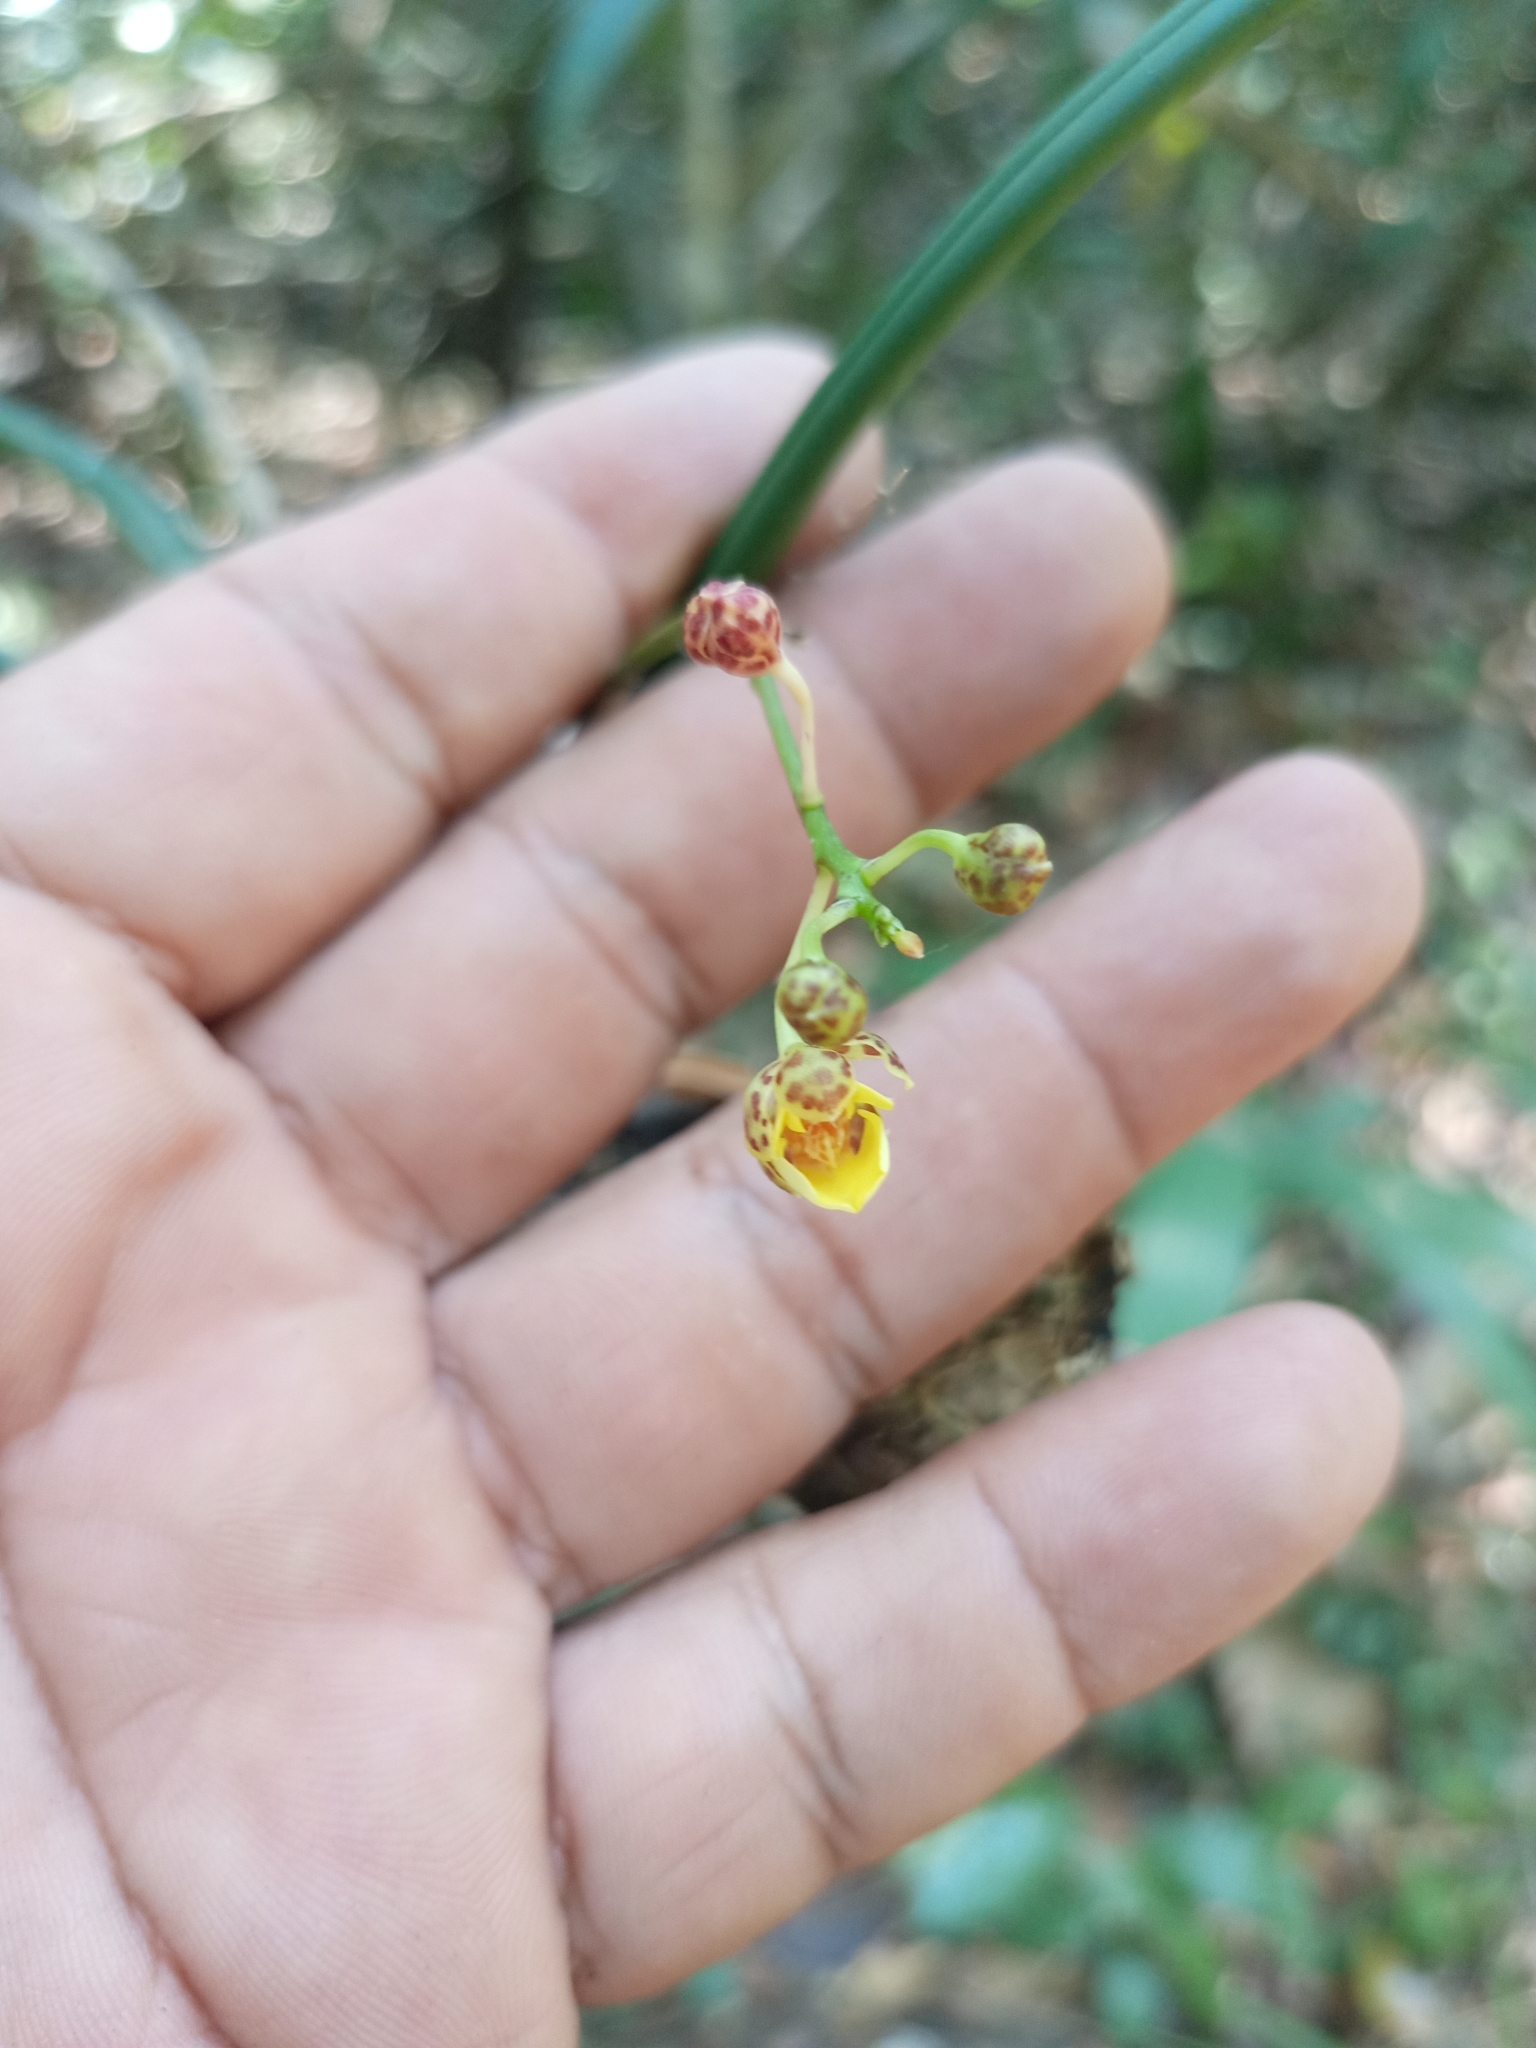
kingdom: Plantae
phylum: Tracheophyta
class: Liliopsida
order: Asparagales
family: Orchidaceae
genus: Trichocentrum
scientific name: Trichocentrum ascendens
